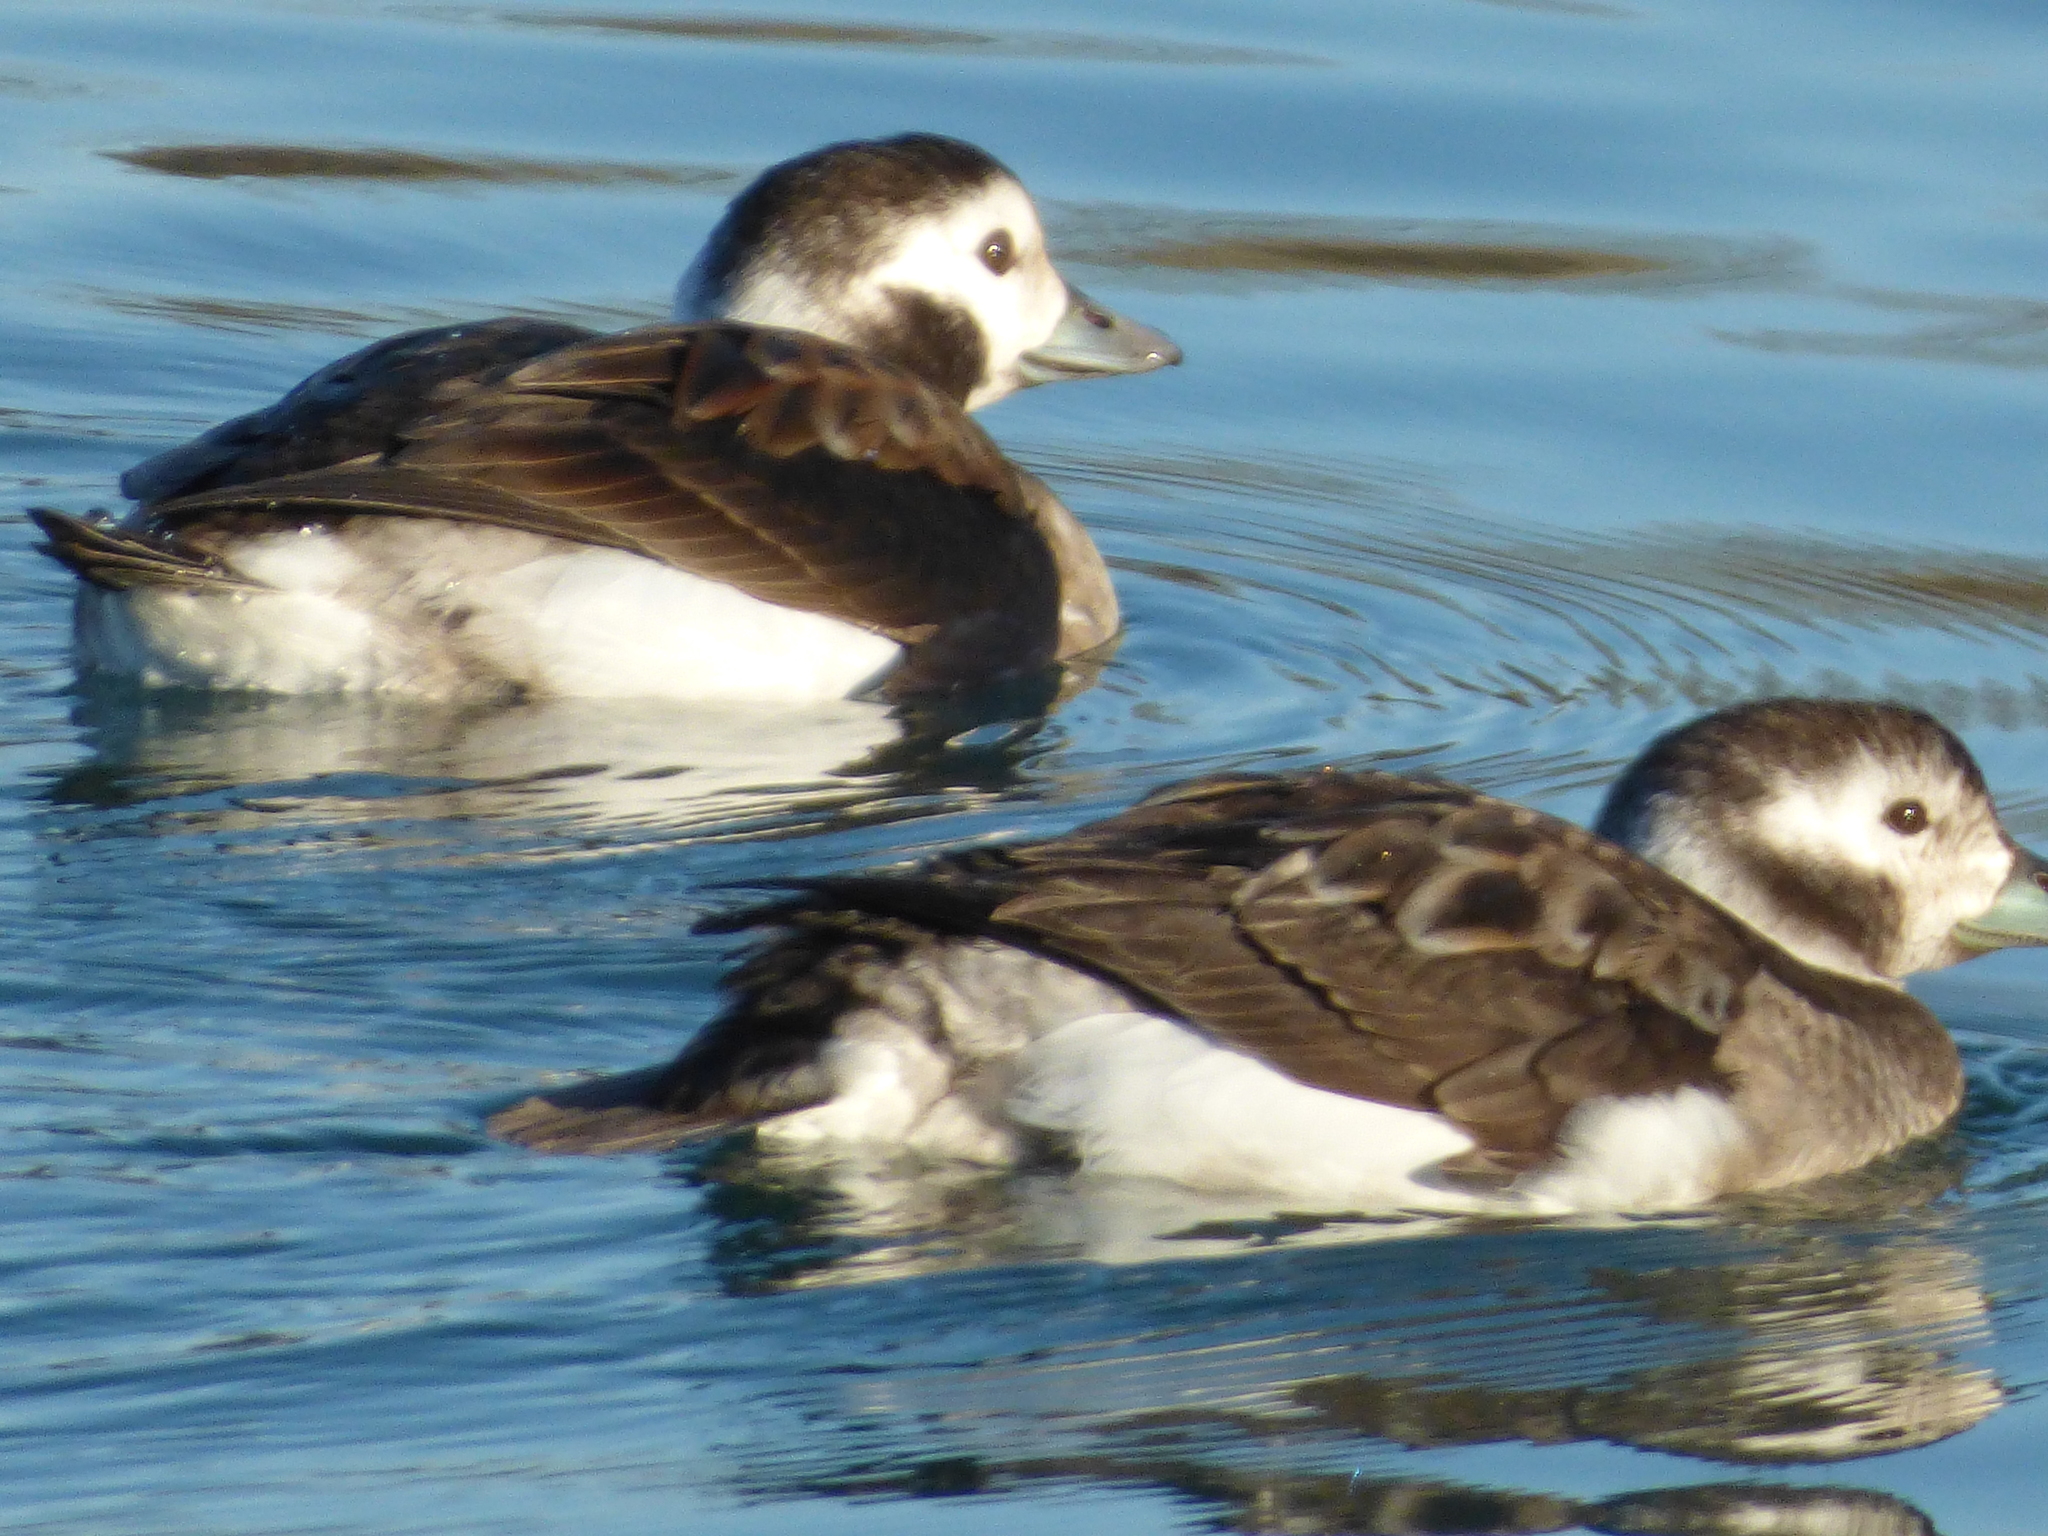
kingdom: Animalia
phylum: Chordata
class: Aves
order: Anseriformes
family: Anatidae
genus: Clangula
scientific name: Clangula hyemalis
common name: Long-tailed duck
